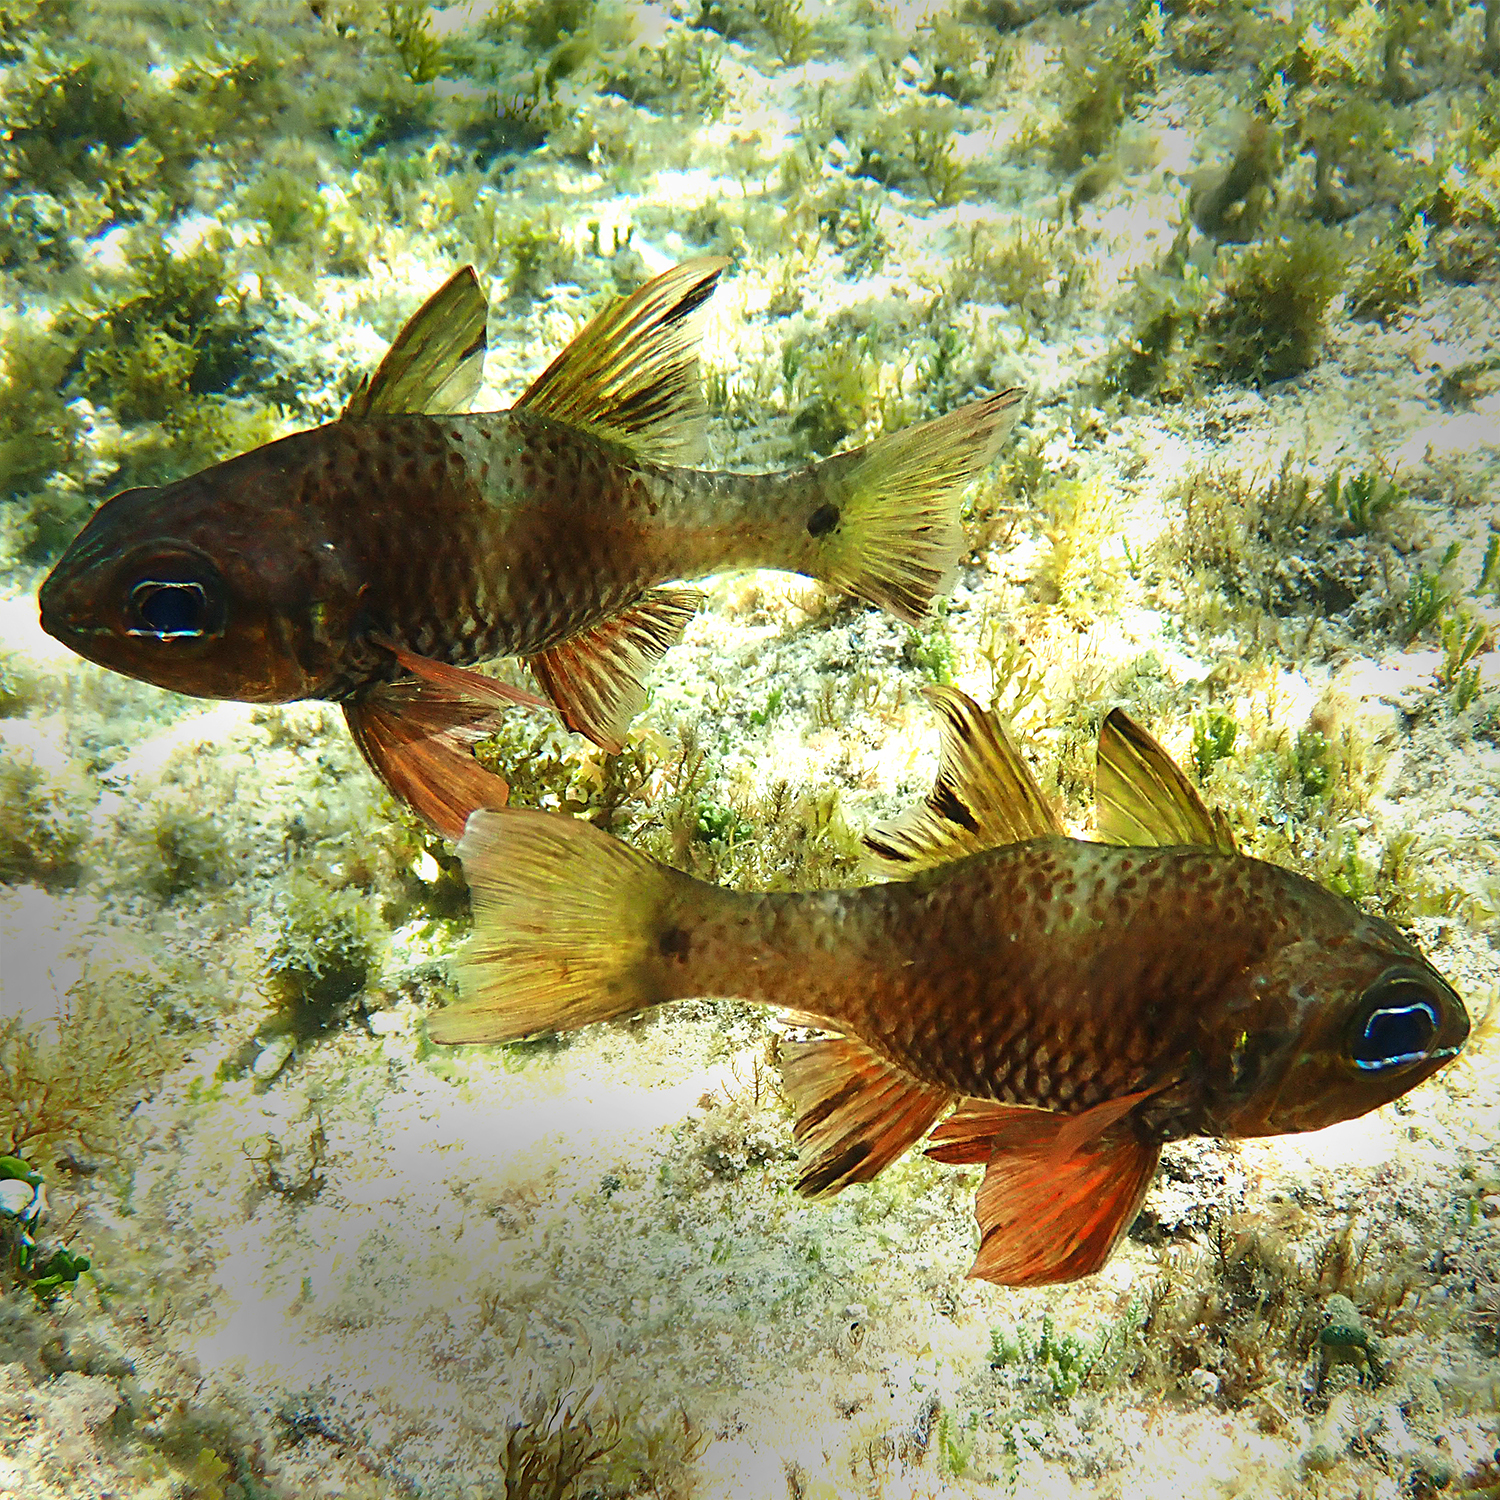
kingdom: Animalia
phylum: Chordata
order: Perciformes
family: Apogonidae
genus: Ostorhinchus
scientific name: Ostorhinchus norfolcensis
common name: Norfolk cardinalfish
